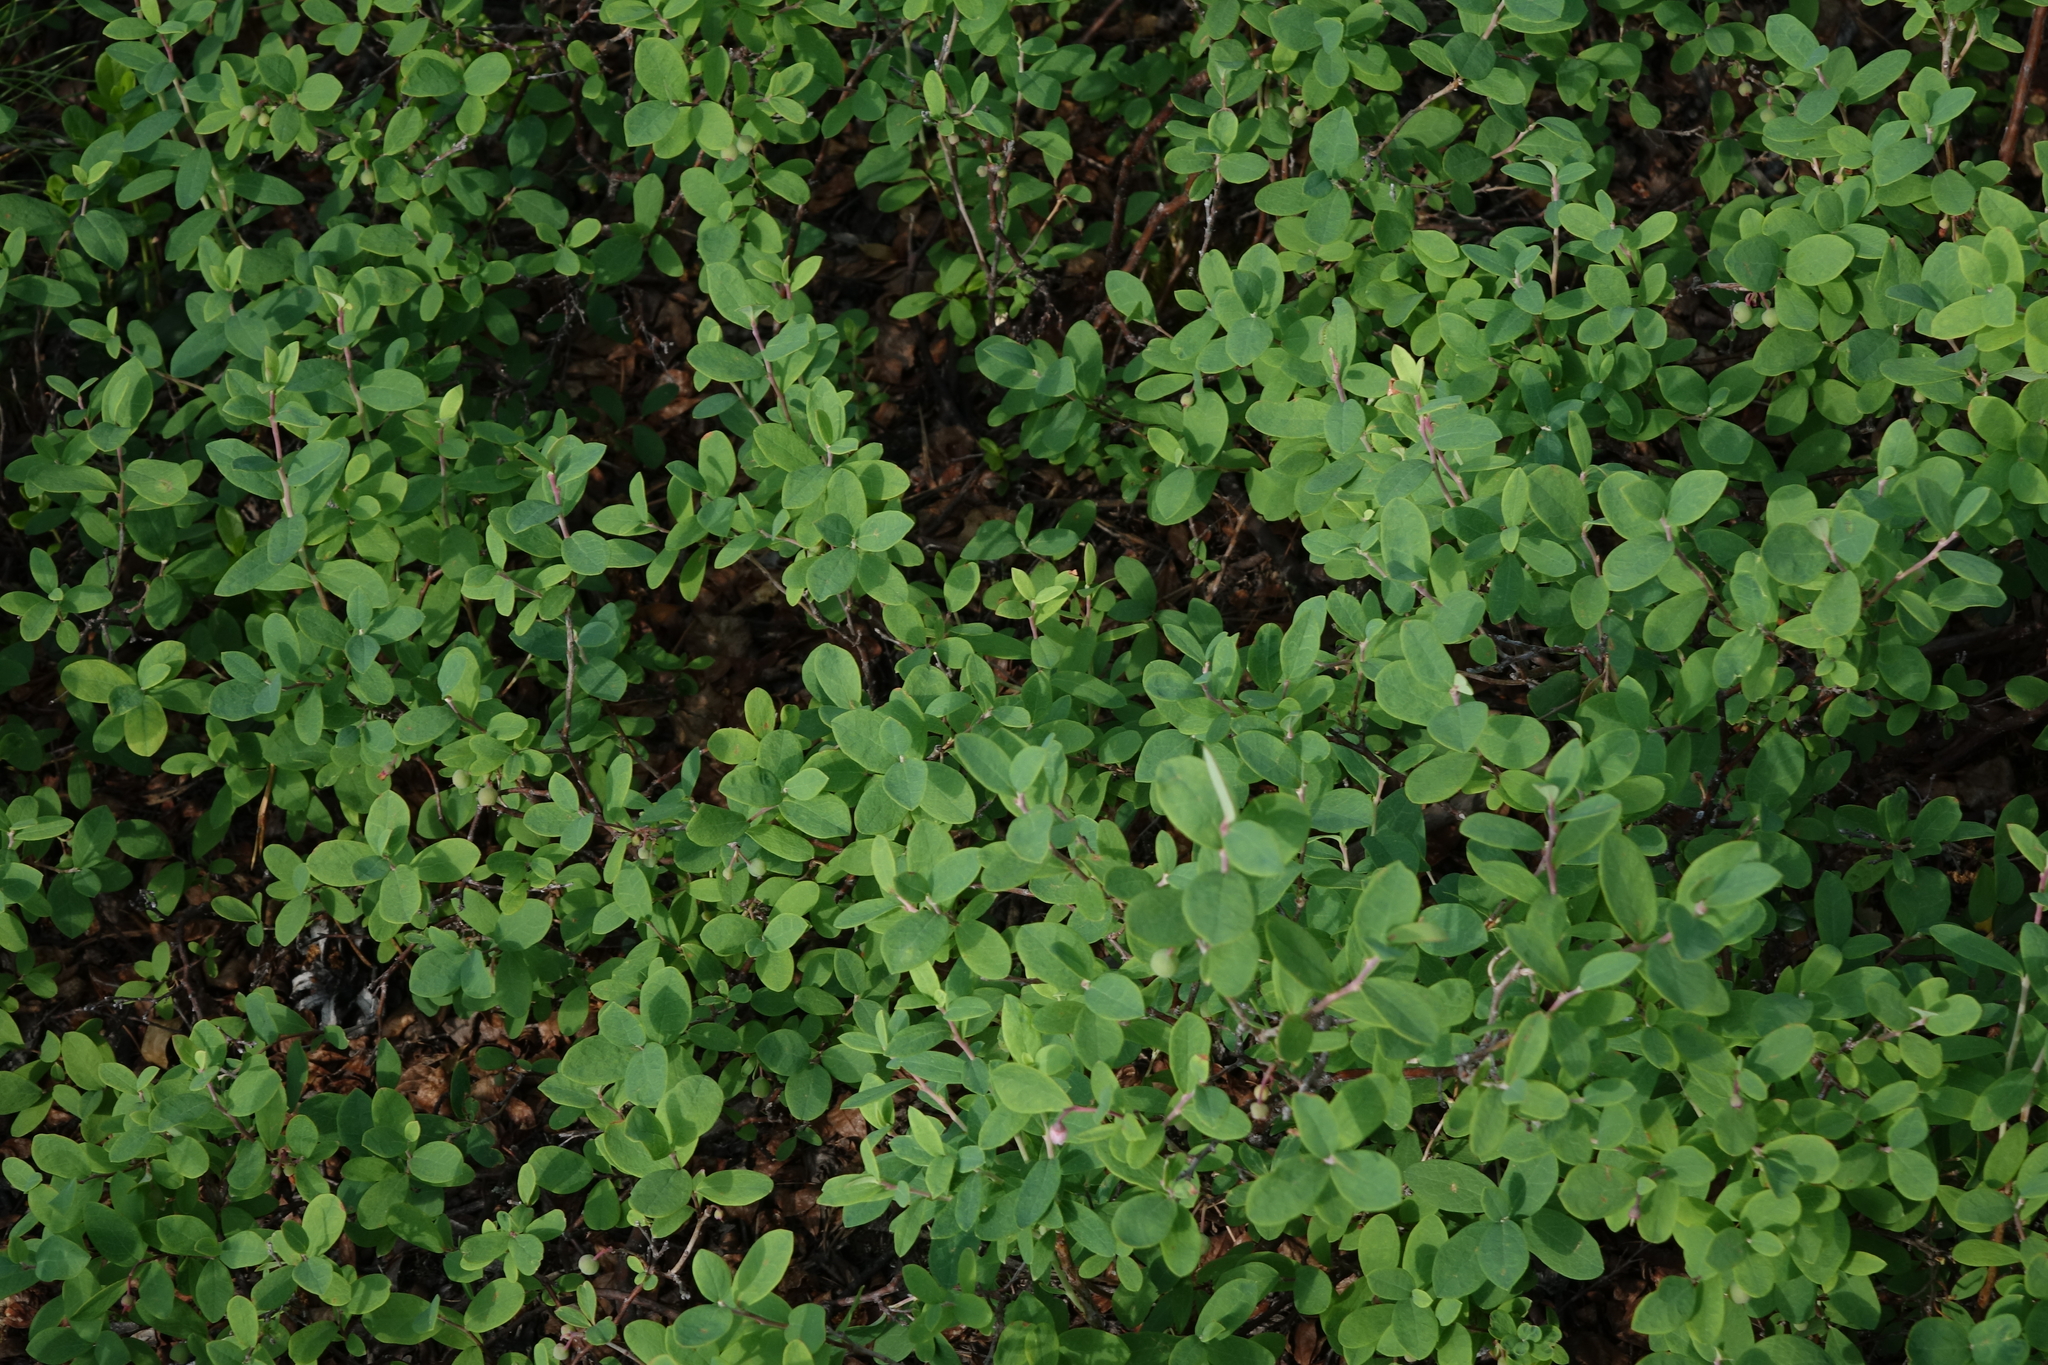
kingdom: Plantae
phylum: Tracheophyta
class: Magnoliopsida
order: Ericales
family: Ericaceae
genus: Vaccinium
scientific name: Vaccinium uliginosum
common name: Bog bilberry
